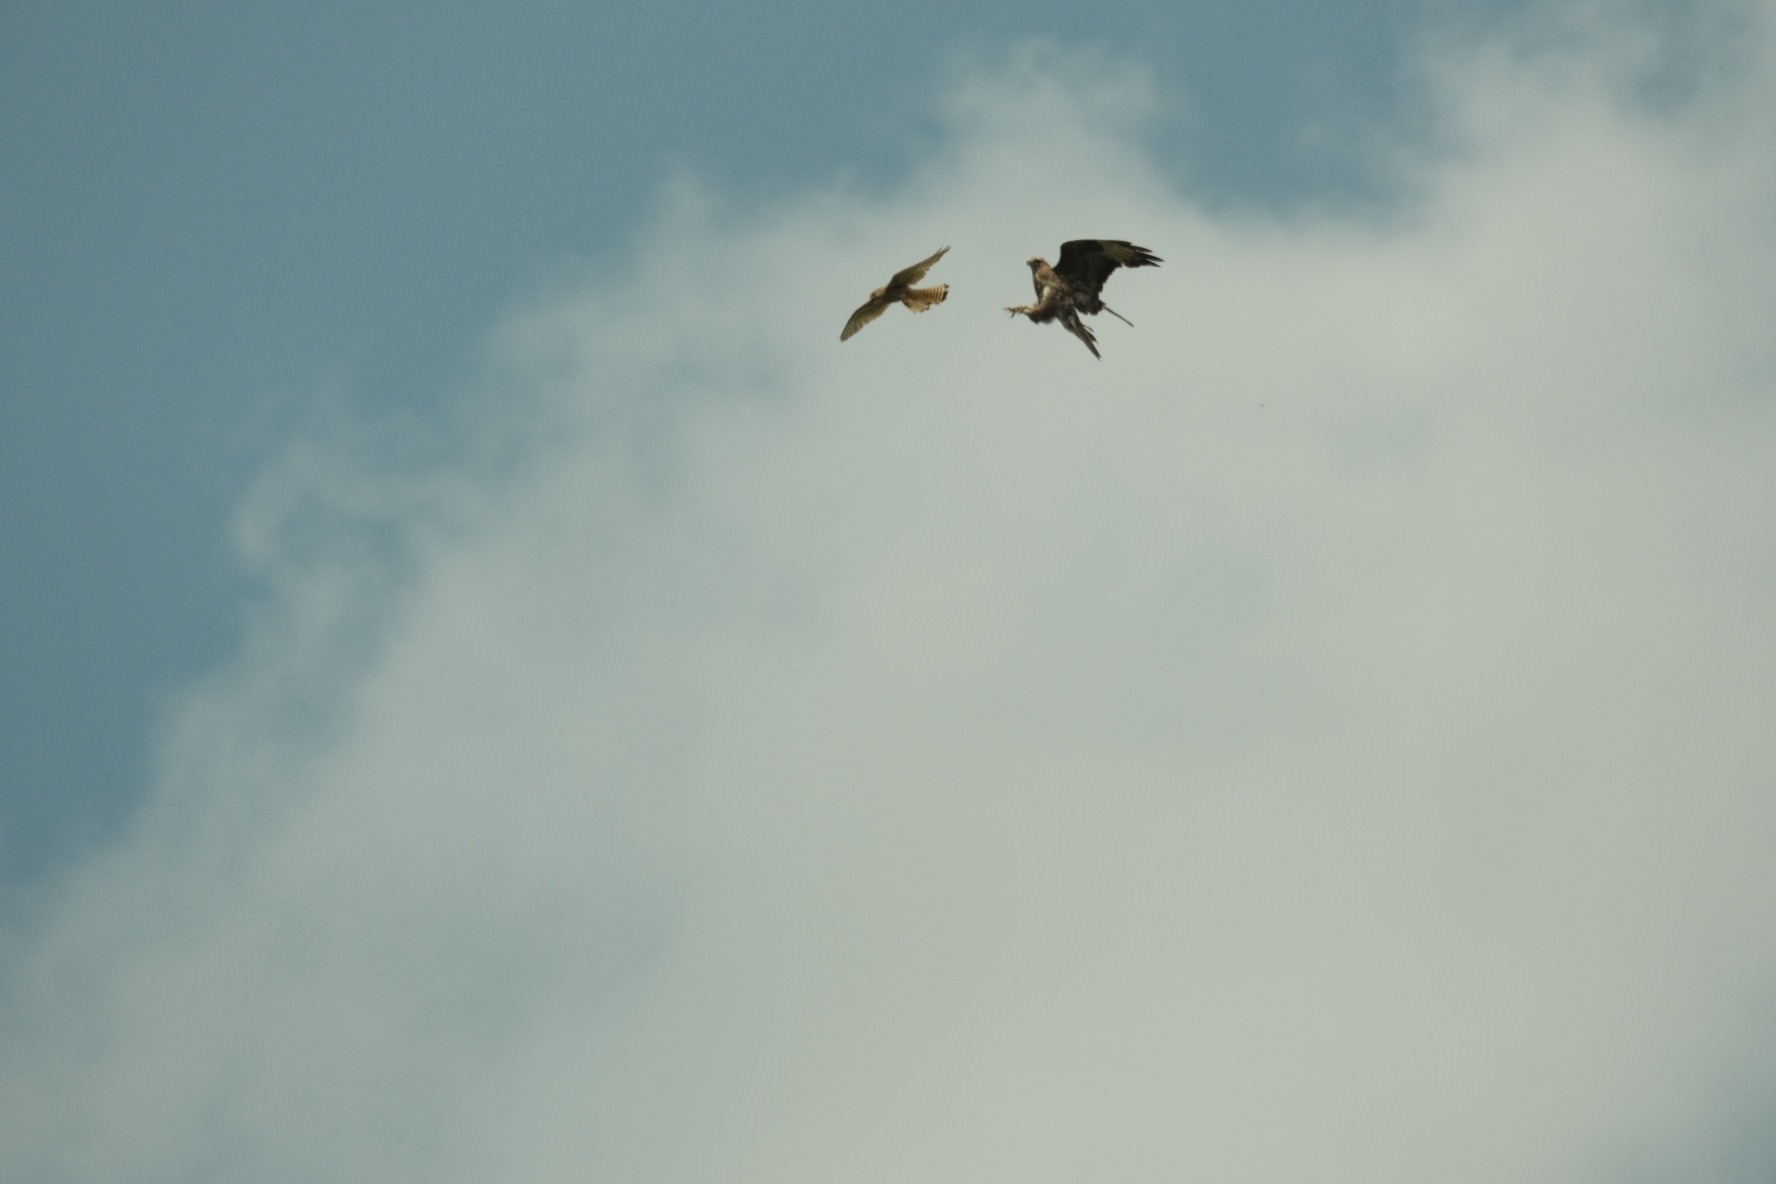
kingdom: Animalia
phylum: Chordata
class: Aves
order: Accipitriformes
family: Accipitridae
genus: Buteo
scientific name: Buteo buteo
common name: Common buzzard
